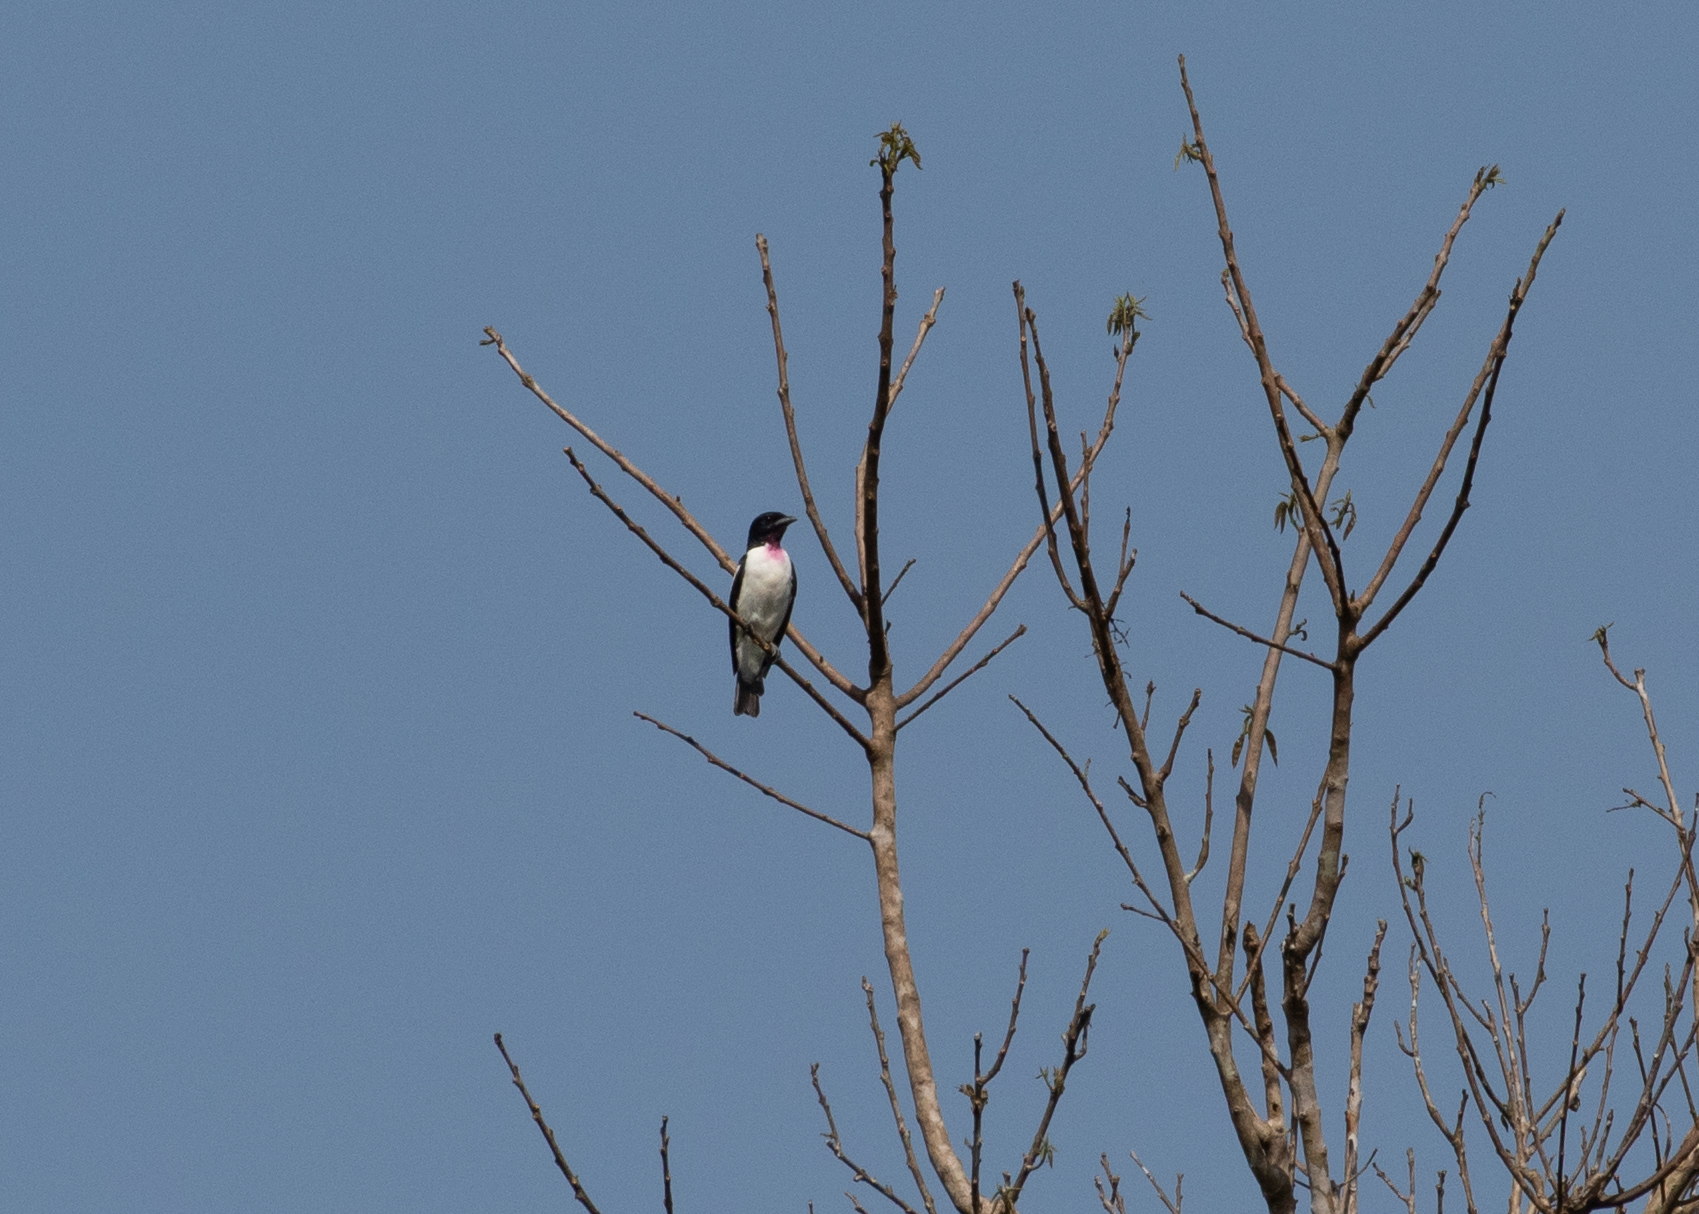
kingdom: Animalia
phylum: Chordata
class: Aves
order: Passeriformes
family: Cotingidae
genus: Porphyrolaema
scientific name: Porphyrolaema porphyrolaema
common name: Purple-throated cotinga
